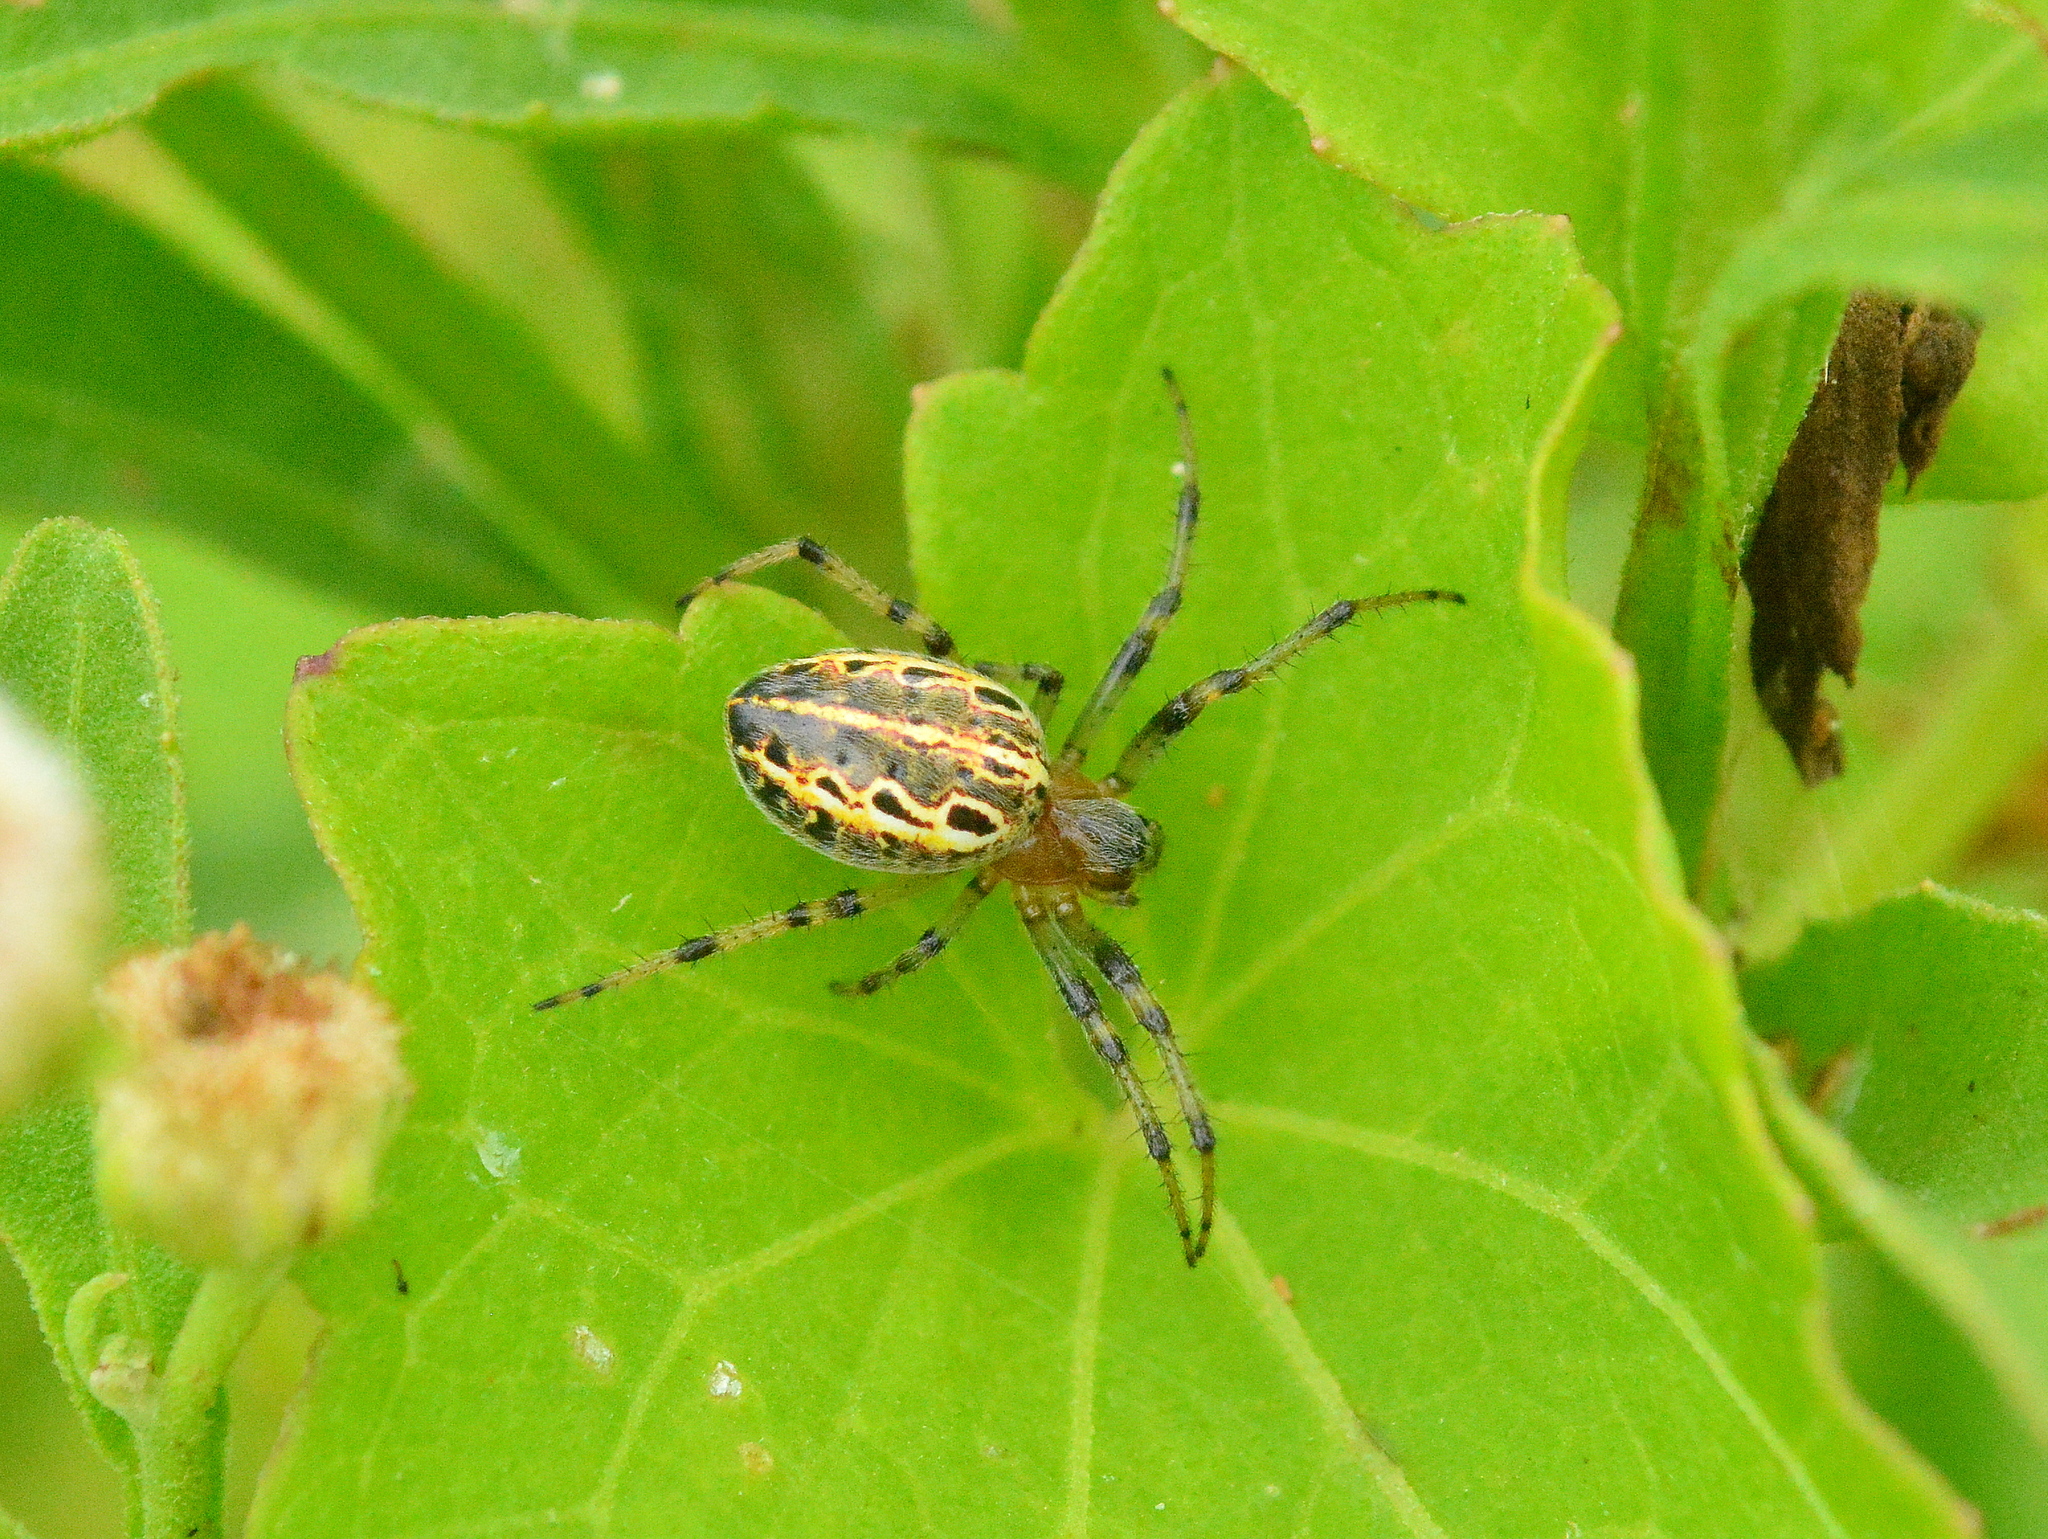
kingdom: Animalia
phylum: Arthropoda
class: Arachnida
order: Araneae
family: Araneidae
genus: Alpaida
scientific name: Alpaida veniliae
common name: Orb weavers
